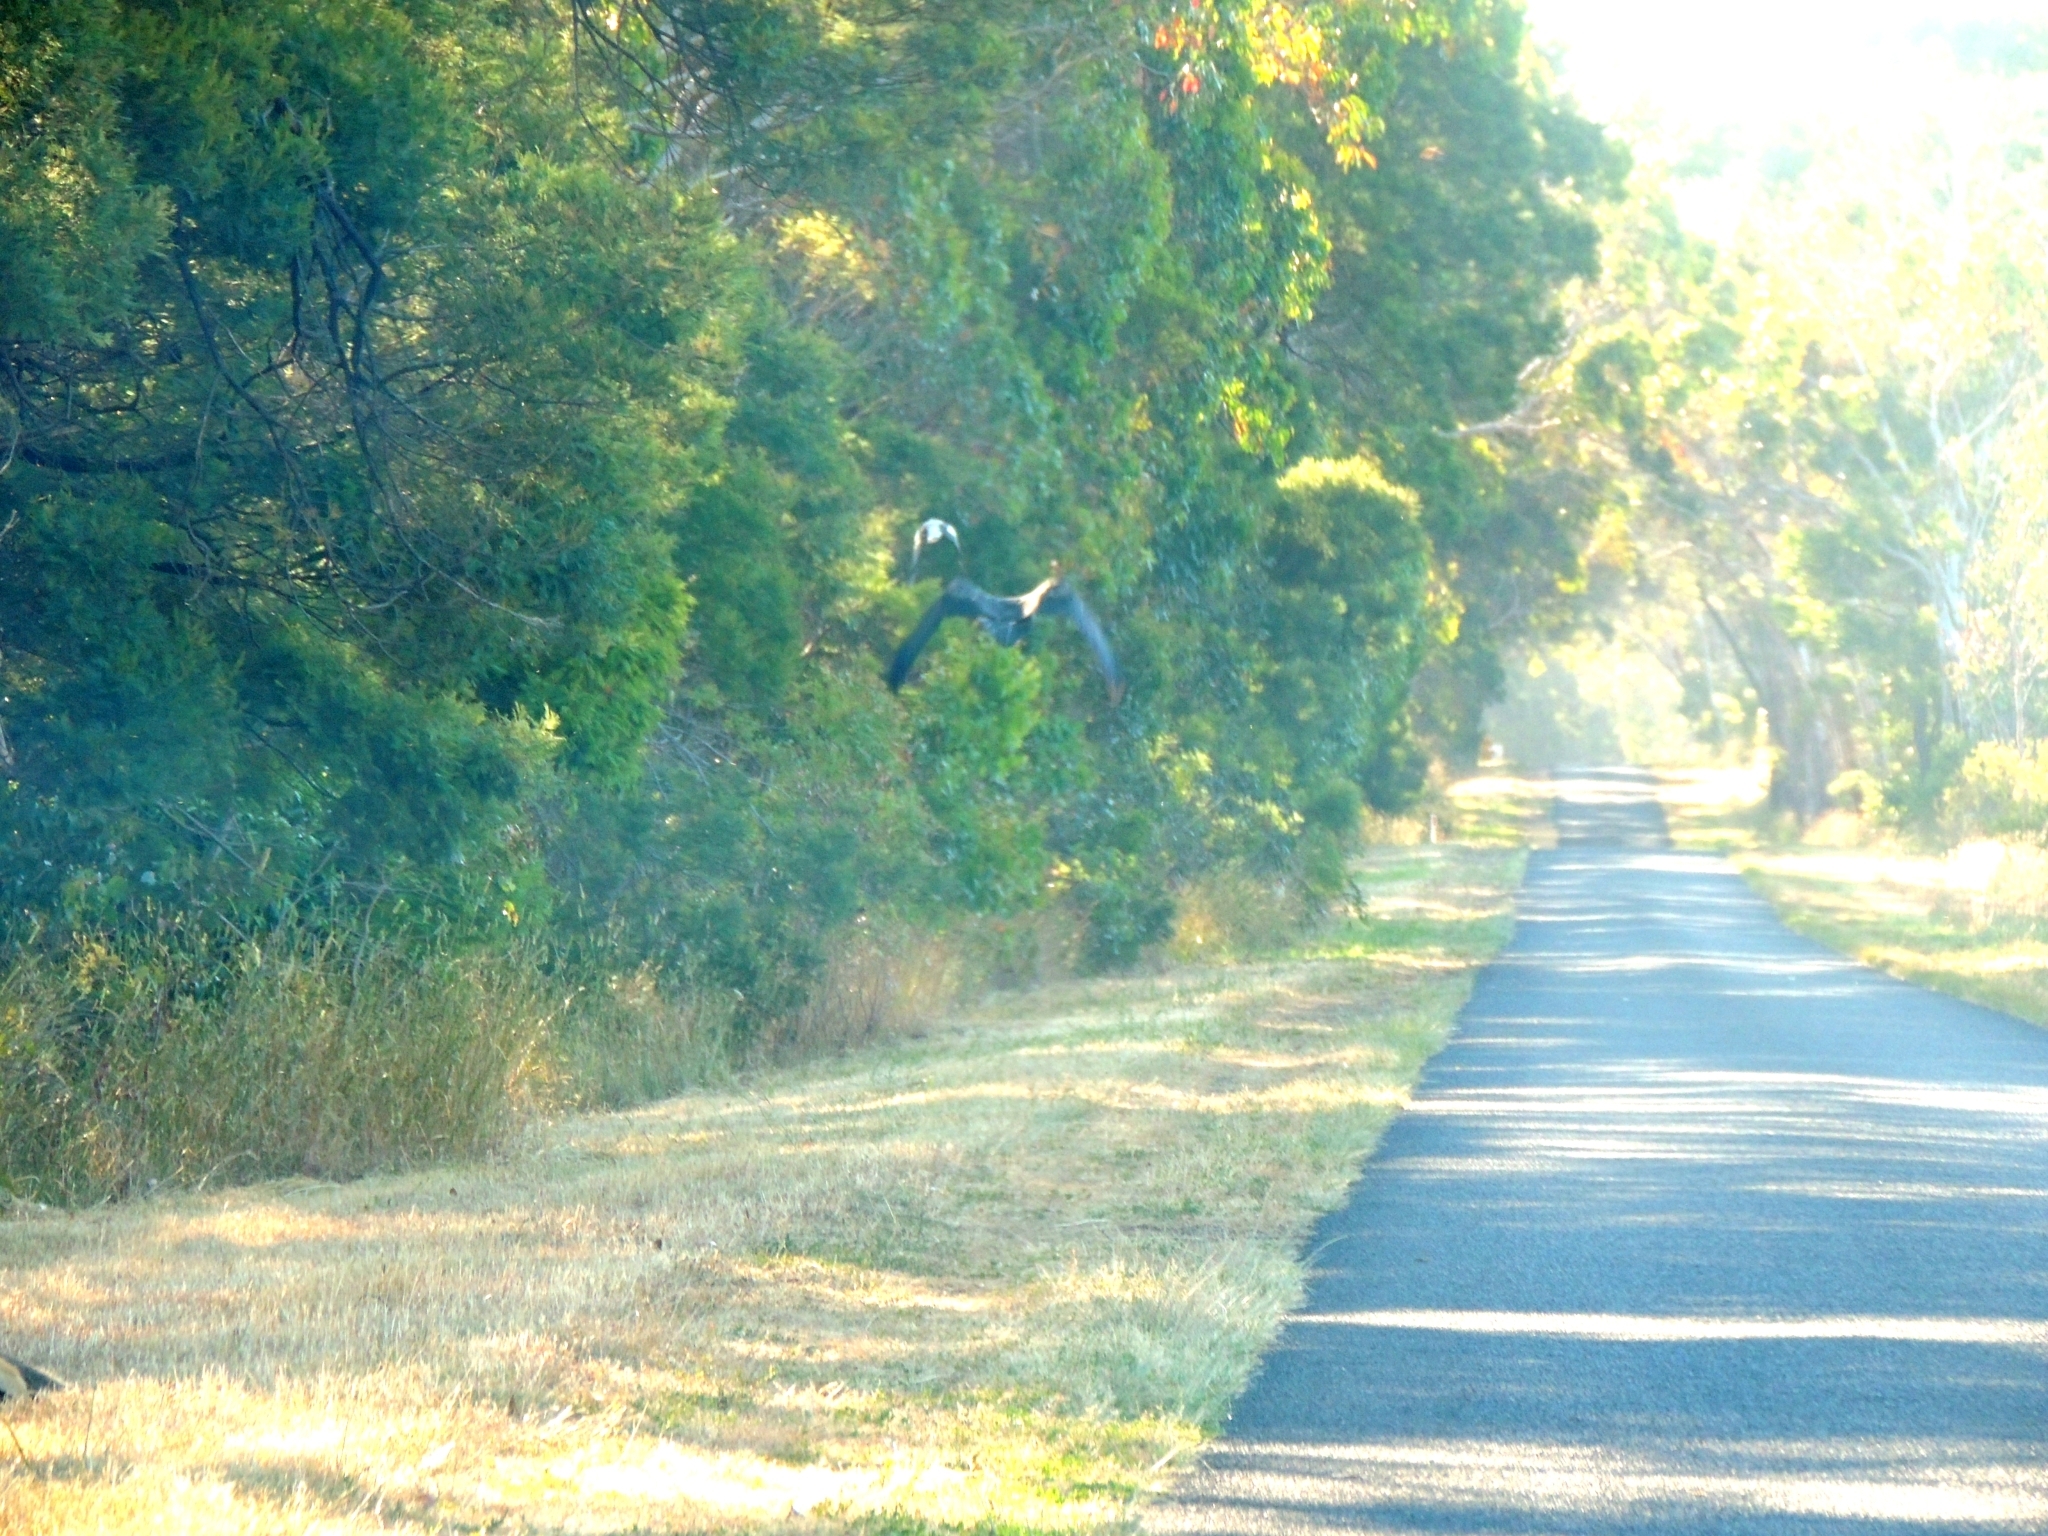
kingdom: Animalia
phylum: Chordata
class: Aves
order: Accipitriformes
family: Accipitridae
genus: Aquila
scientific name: Aquila audax
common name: Wedge-tailed eagle
